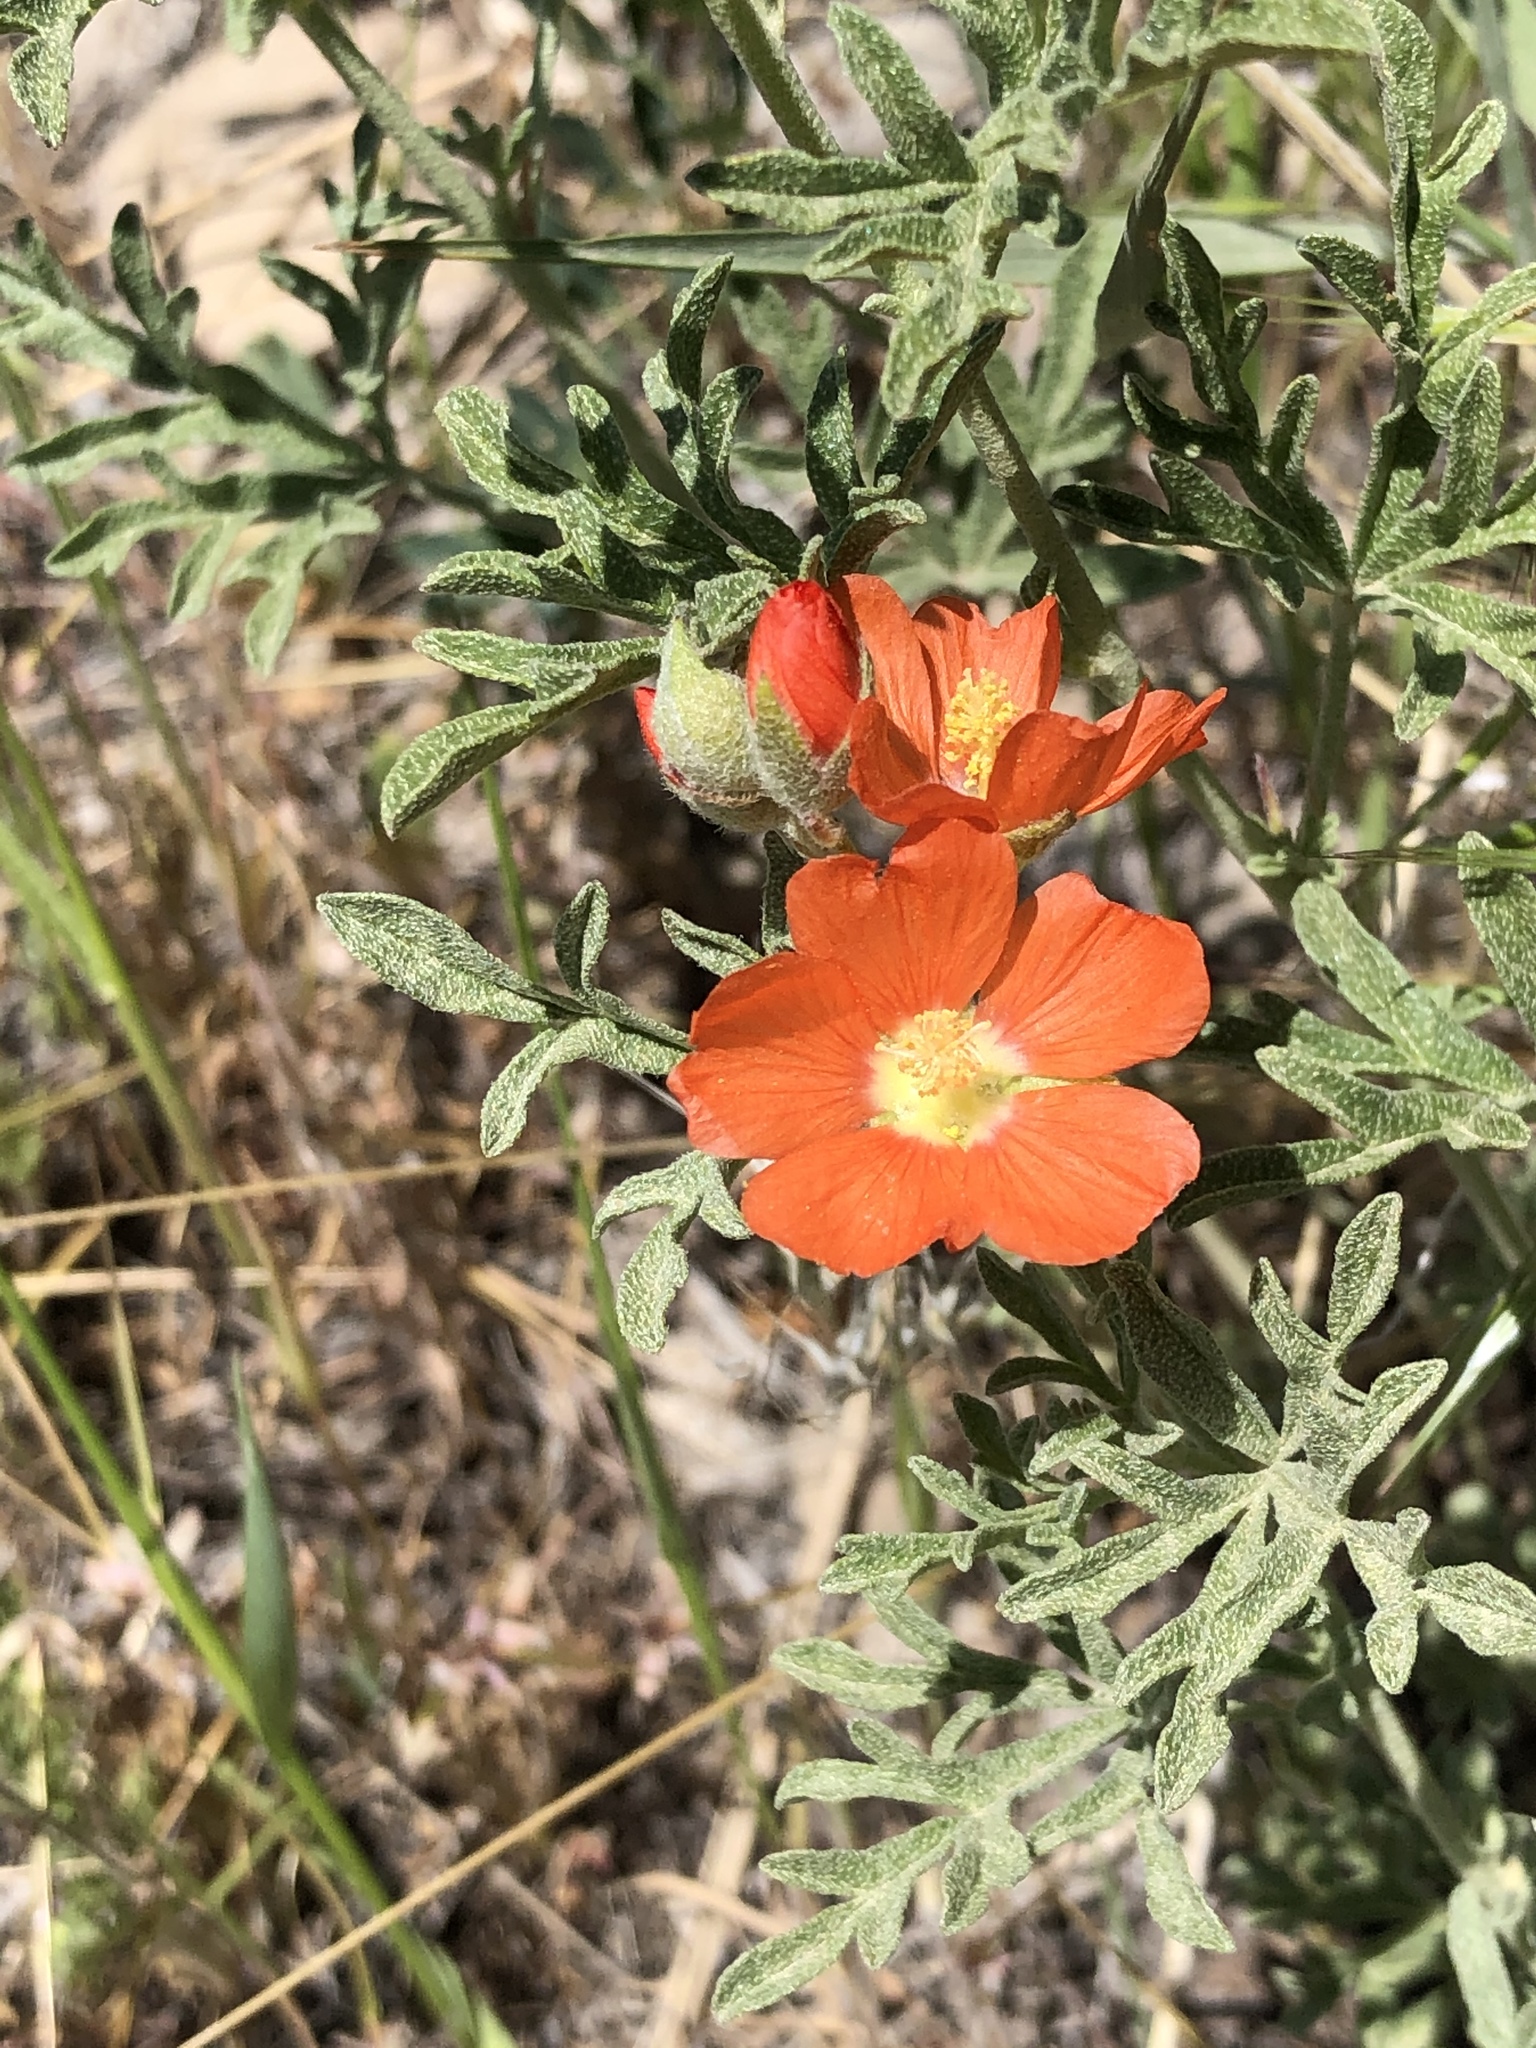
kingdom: Plantae
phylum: Tracheophyta
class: Magnoliopsida
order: Malvales
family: Malvaceae
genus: Sphaeralcea
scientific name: Sphaeralcea coccinea
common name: Moss-rose
